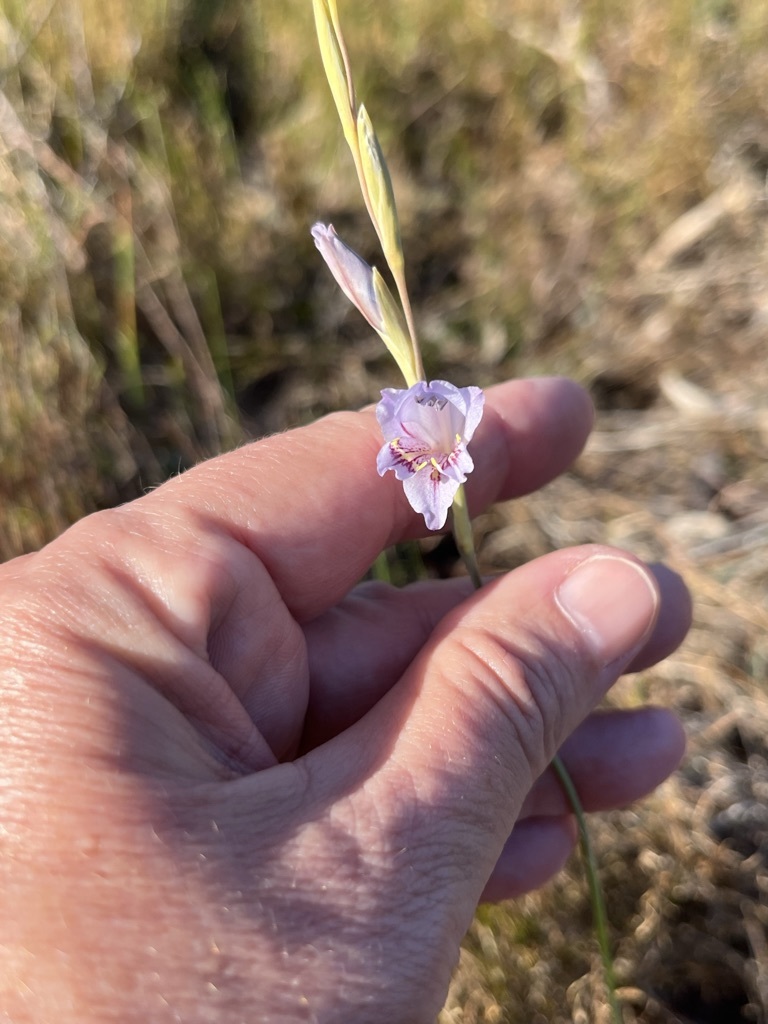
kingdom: Plantae
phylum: Tracheophyta
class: Liliopsida
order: Asparagales
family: Iridaceae
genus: Gladiolus
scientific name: Gladiolus brevifolius
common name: March pypie
